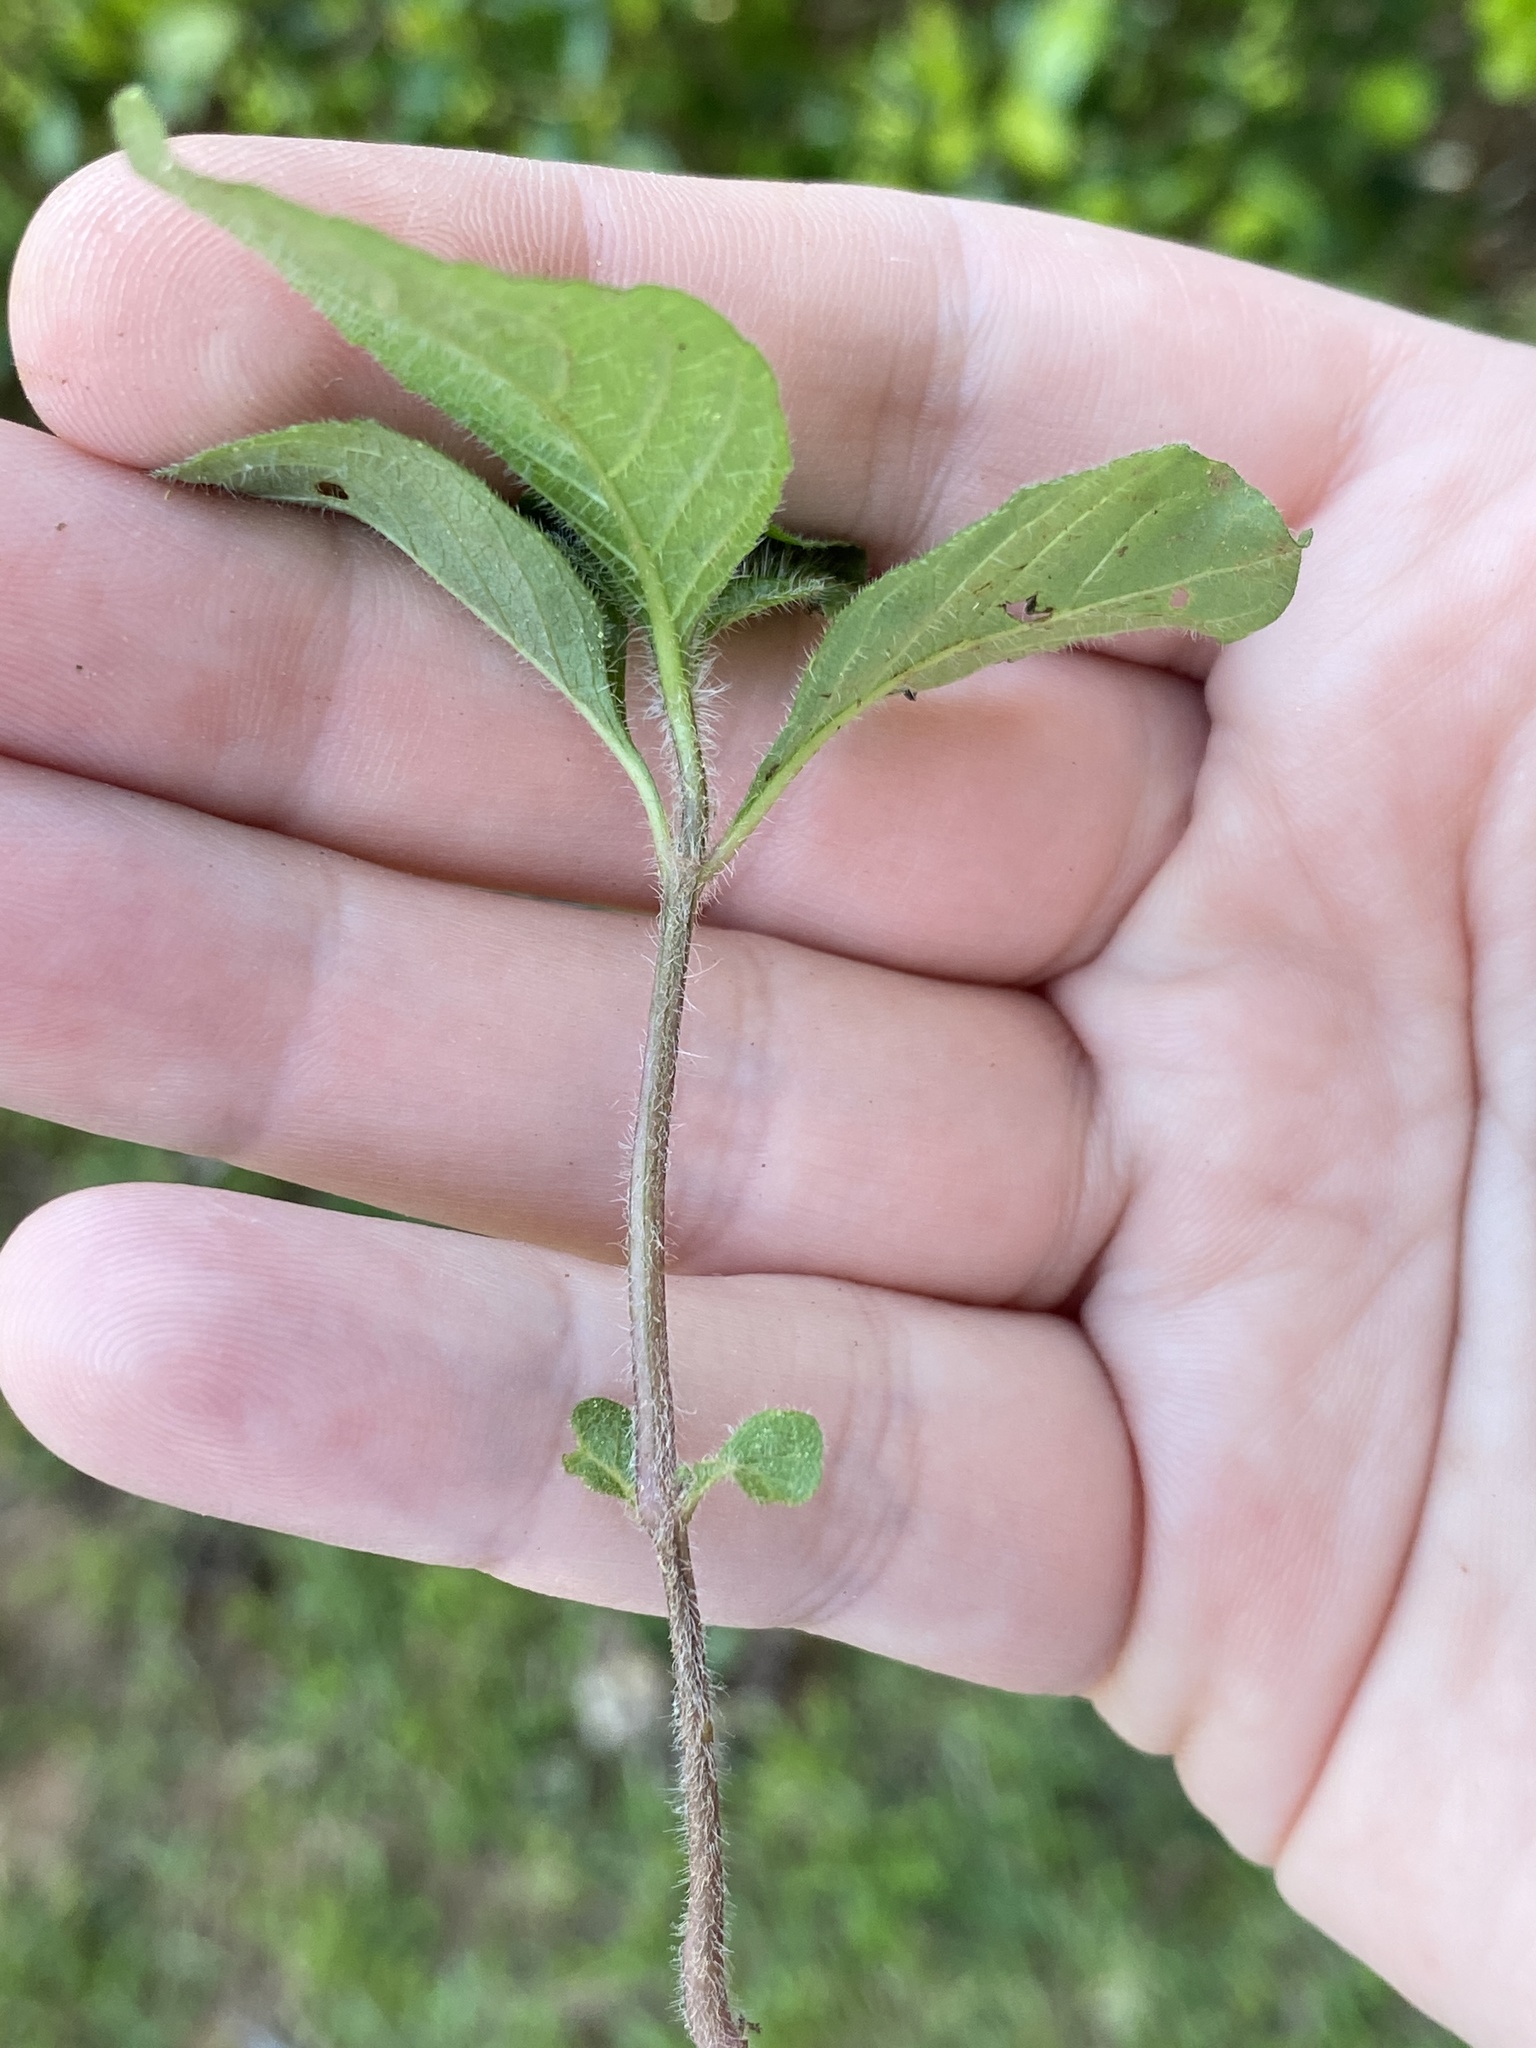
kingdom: Plantae
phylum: Tracheophyta
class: Magnoliopsida
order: Caryophyllales
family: Amaranthaceae
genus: Achyranthes
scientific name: Achyranthes bidentata
